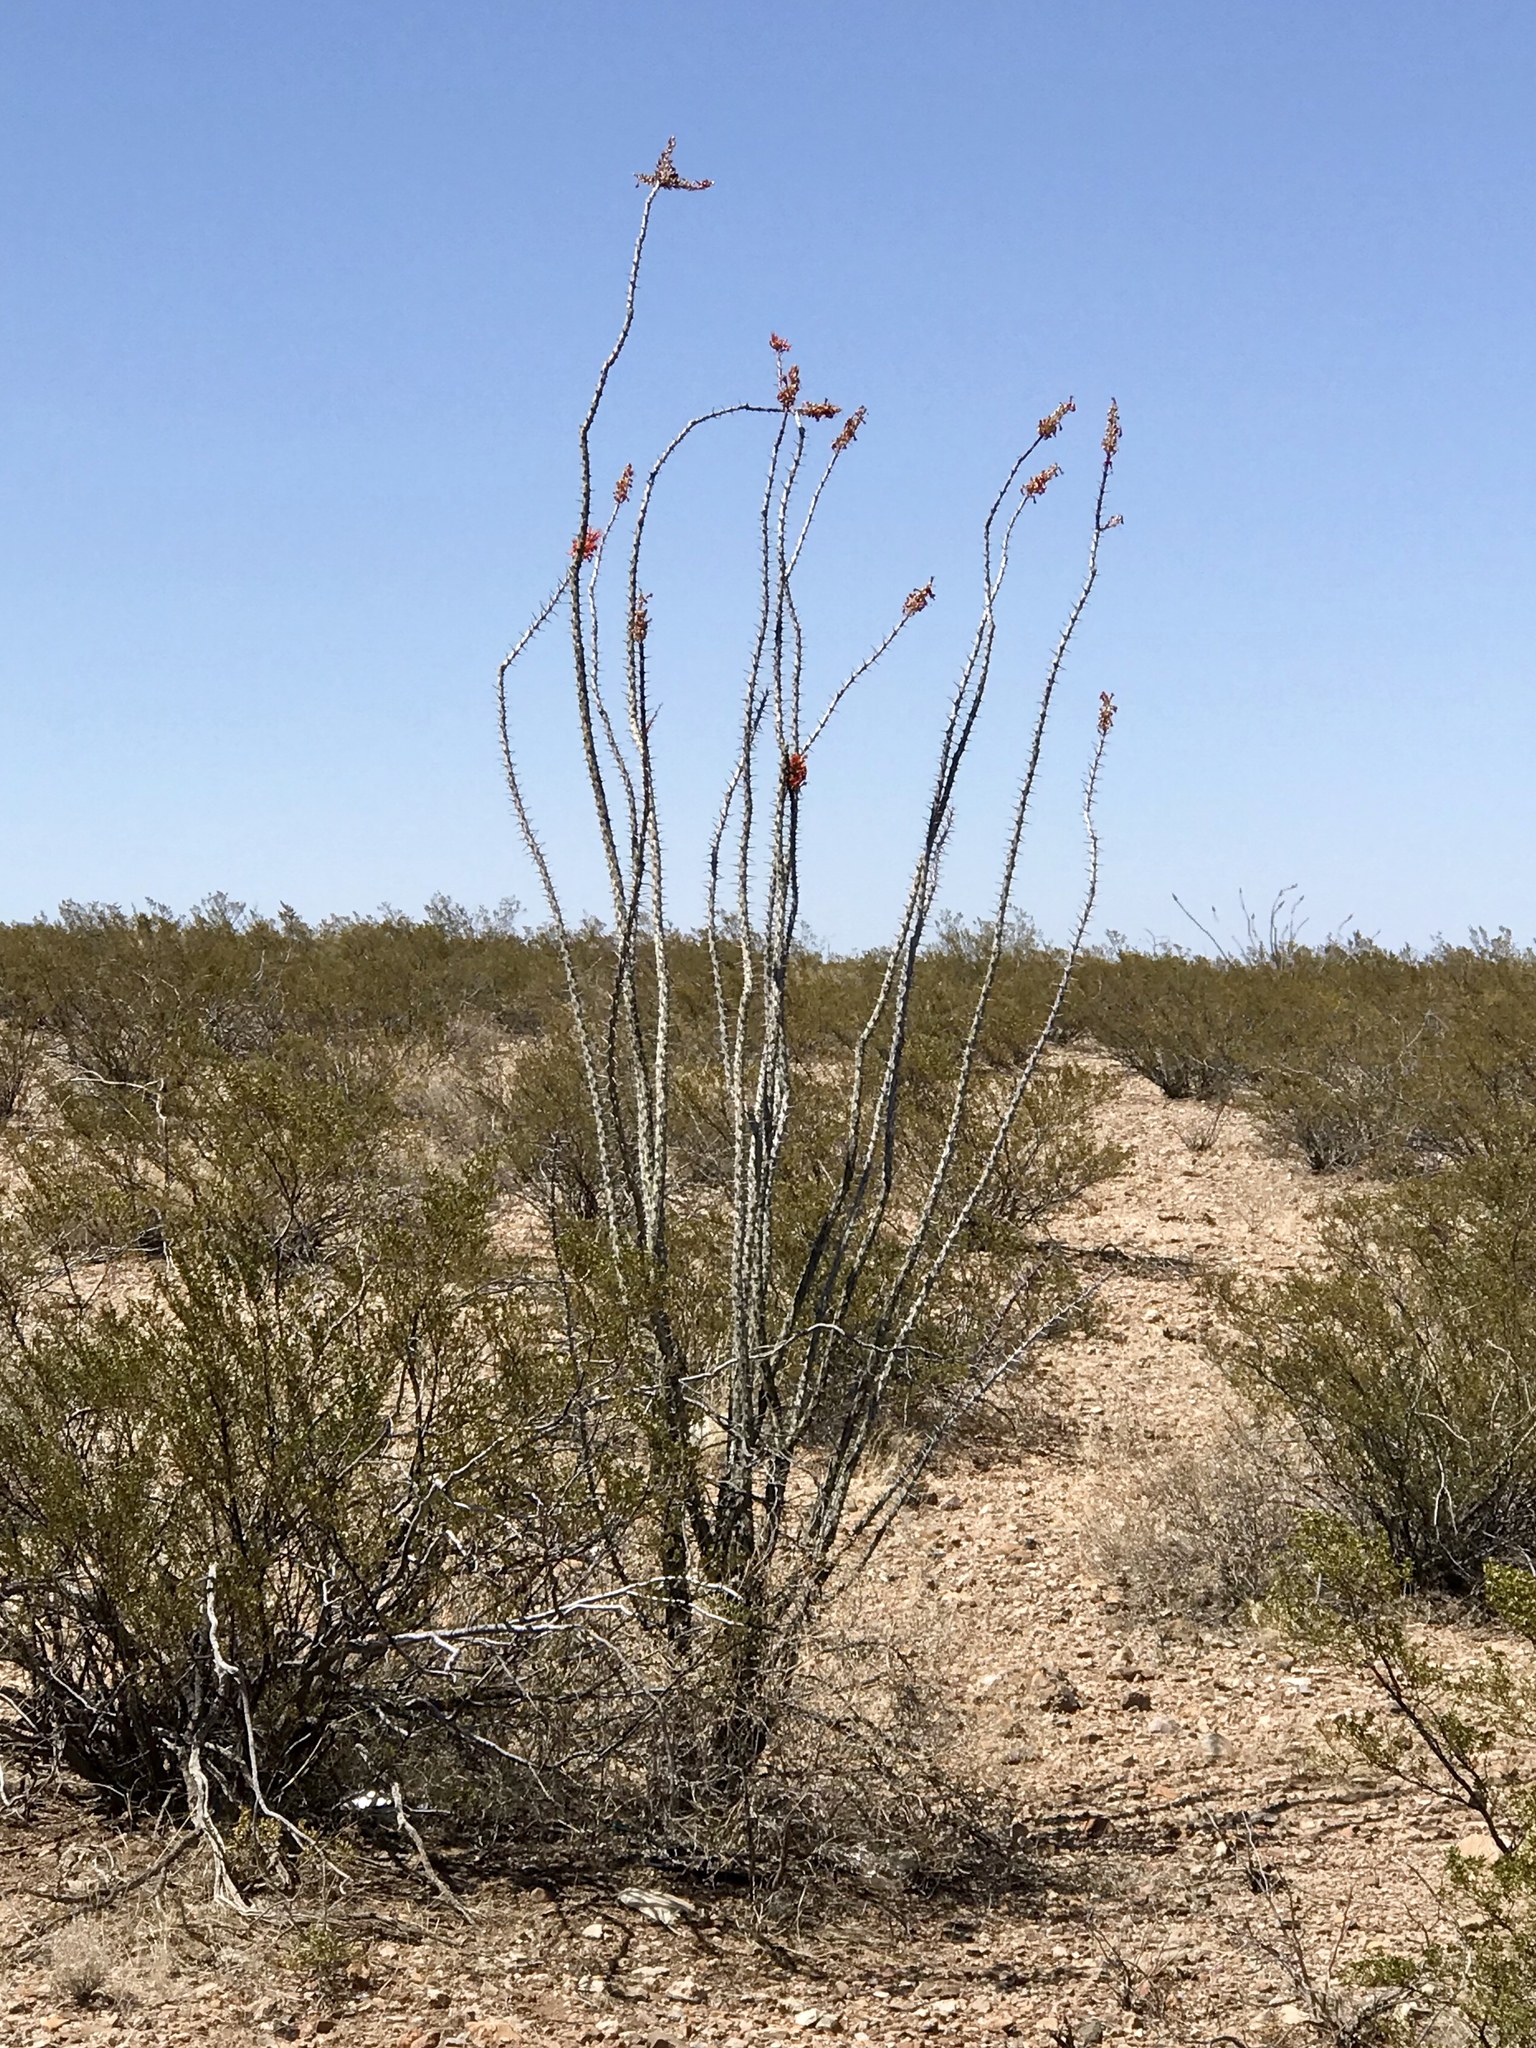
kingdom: Plantae
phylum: Tracheophyta
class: Magnoliopsida
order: Ericales
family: Fouquieriaceae
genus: Fouquieria
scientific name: Fouquieria splendens
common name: Vine-cactus
